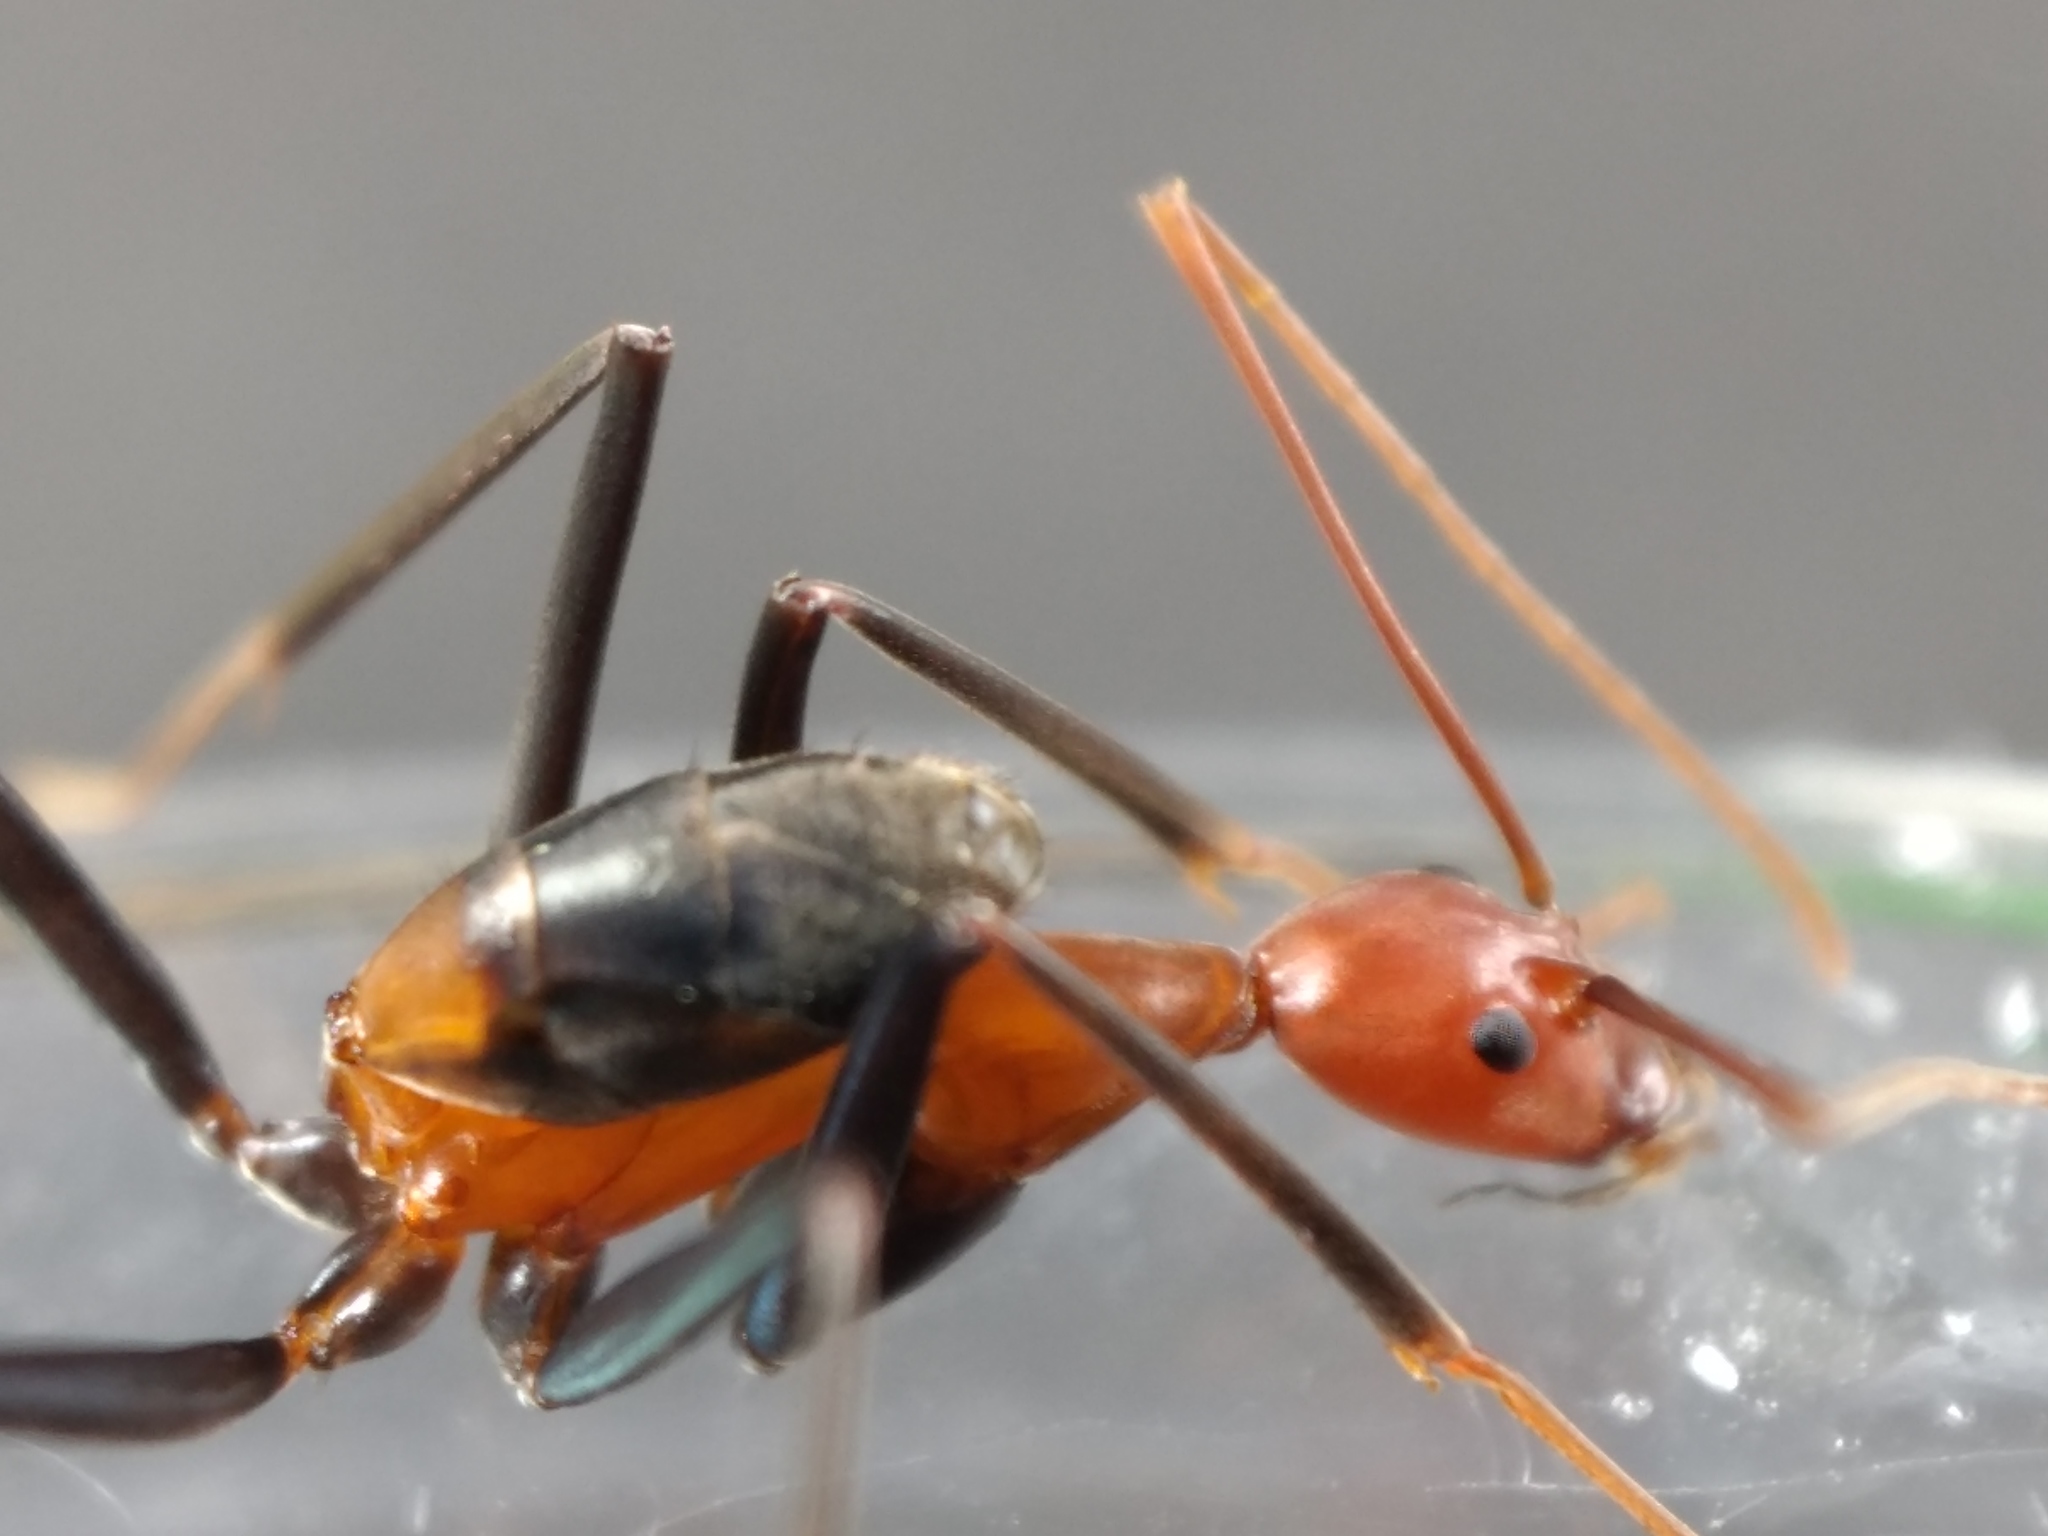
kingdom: Animalia
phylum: Arthropoda
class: Insecta
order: Hymenoptera
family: Formicidae
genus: Leptomyrmex
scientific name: Leptomyrmex rufithorax
